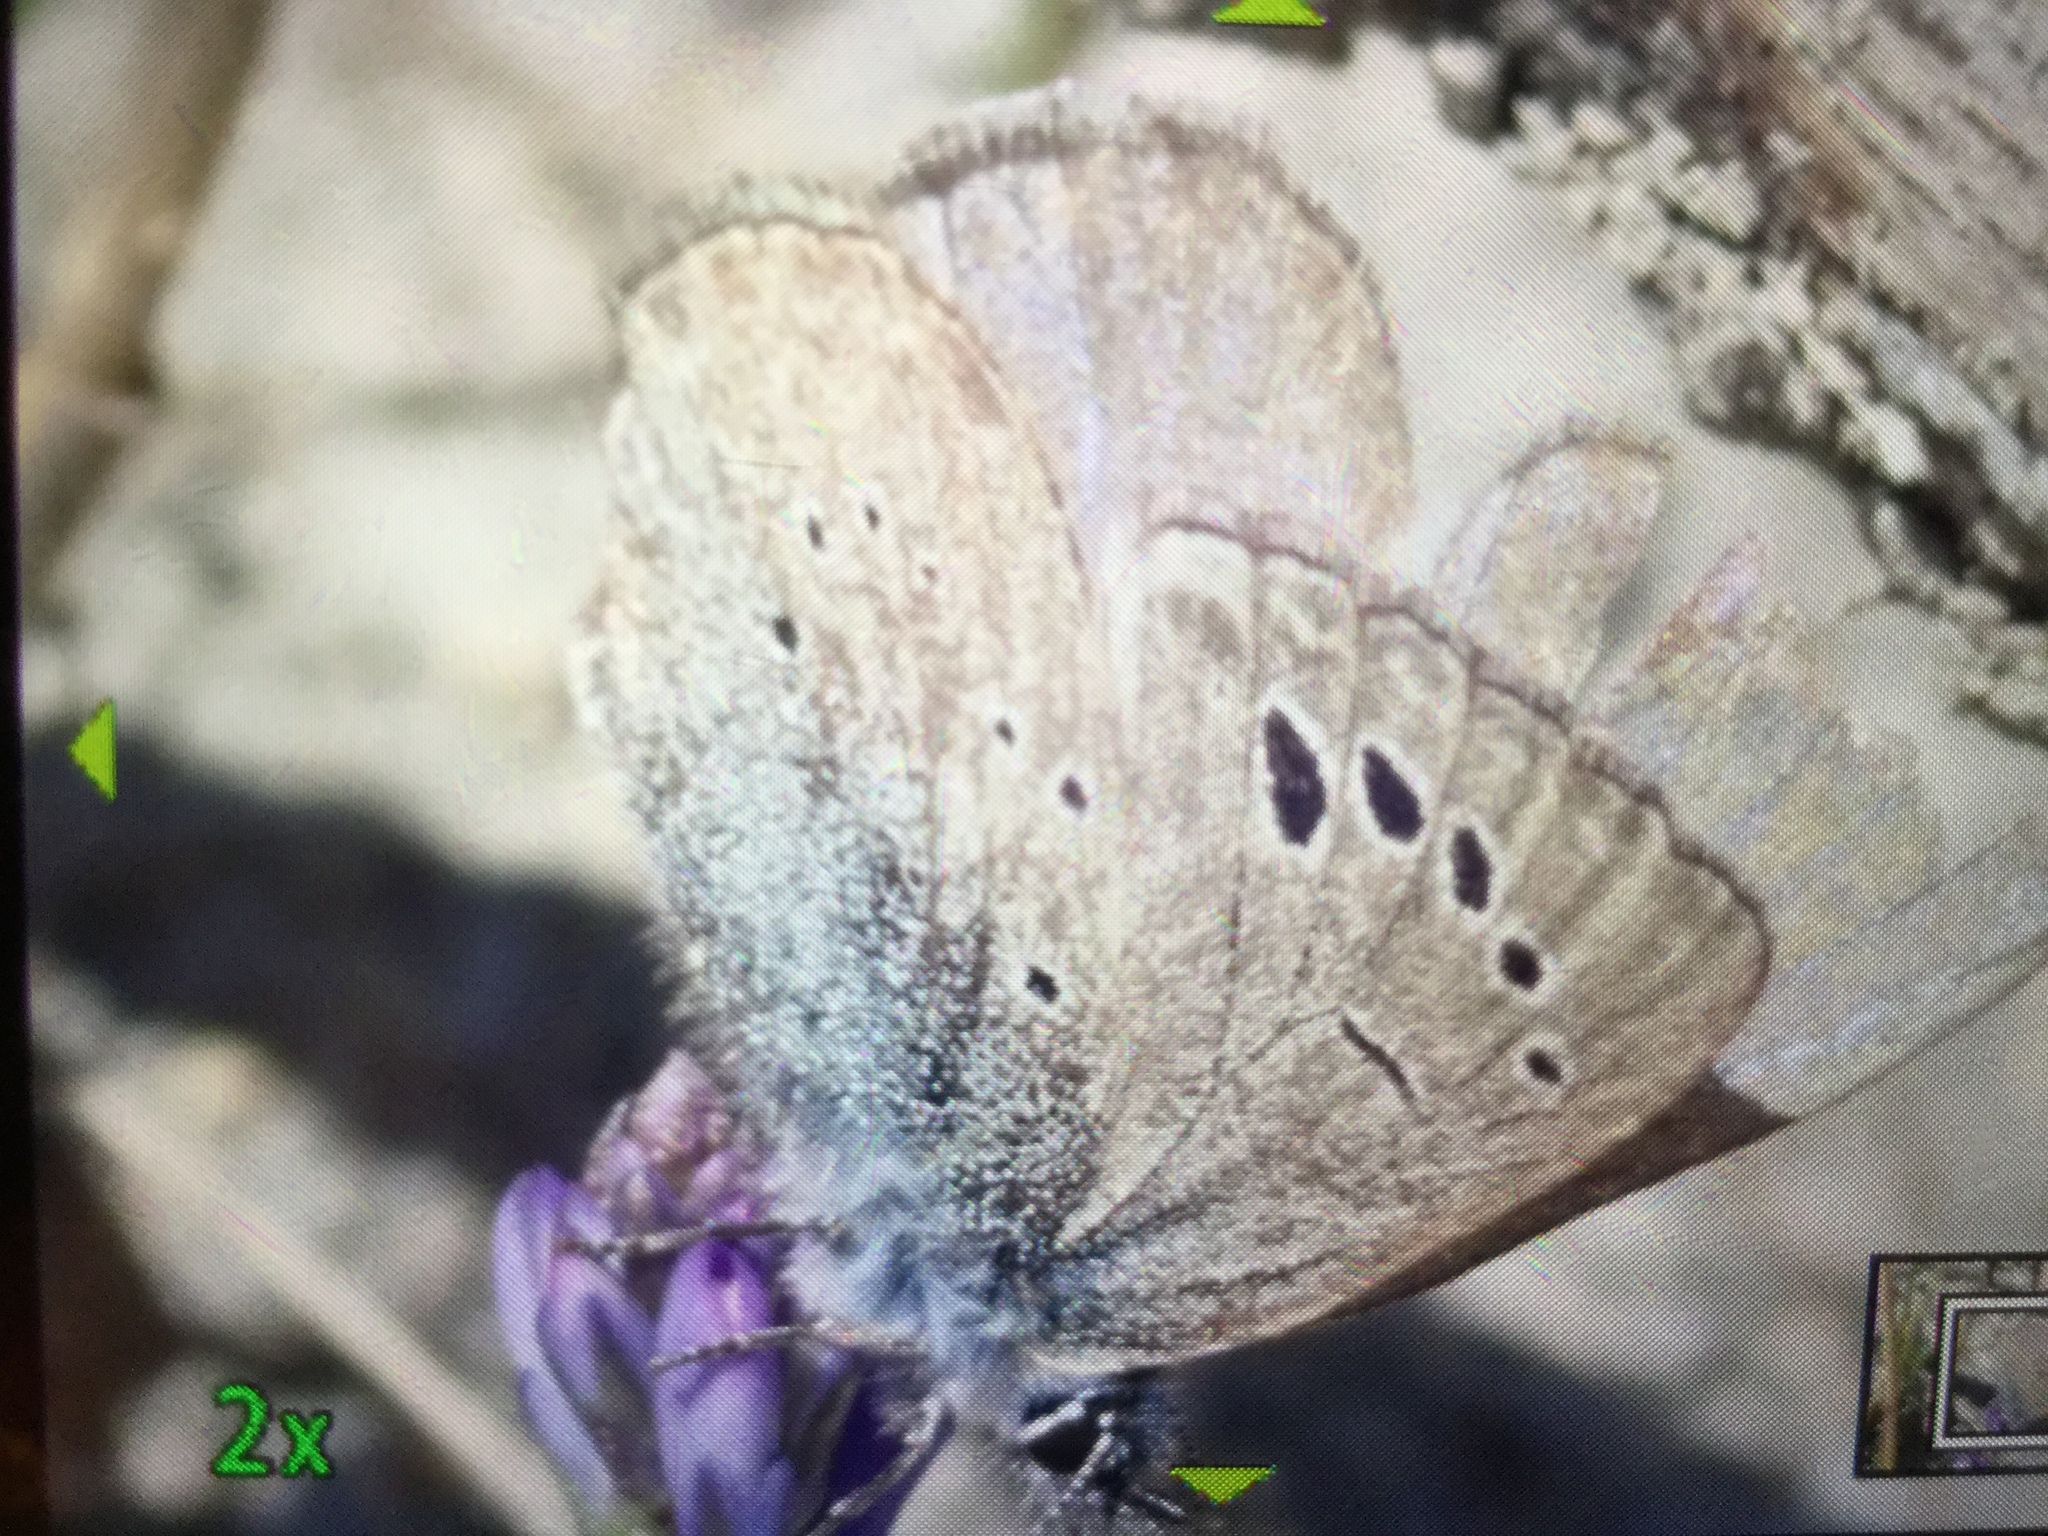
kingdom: Animalia
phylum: Arthropoda
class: Insecta
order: Lepidoptera
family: Lycaenidae
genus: Glaucopsyche
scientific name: Glaucopsyche melanops
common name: Black-eyed blue
